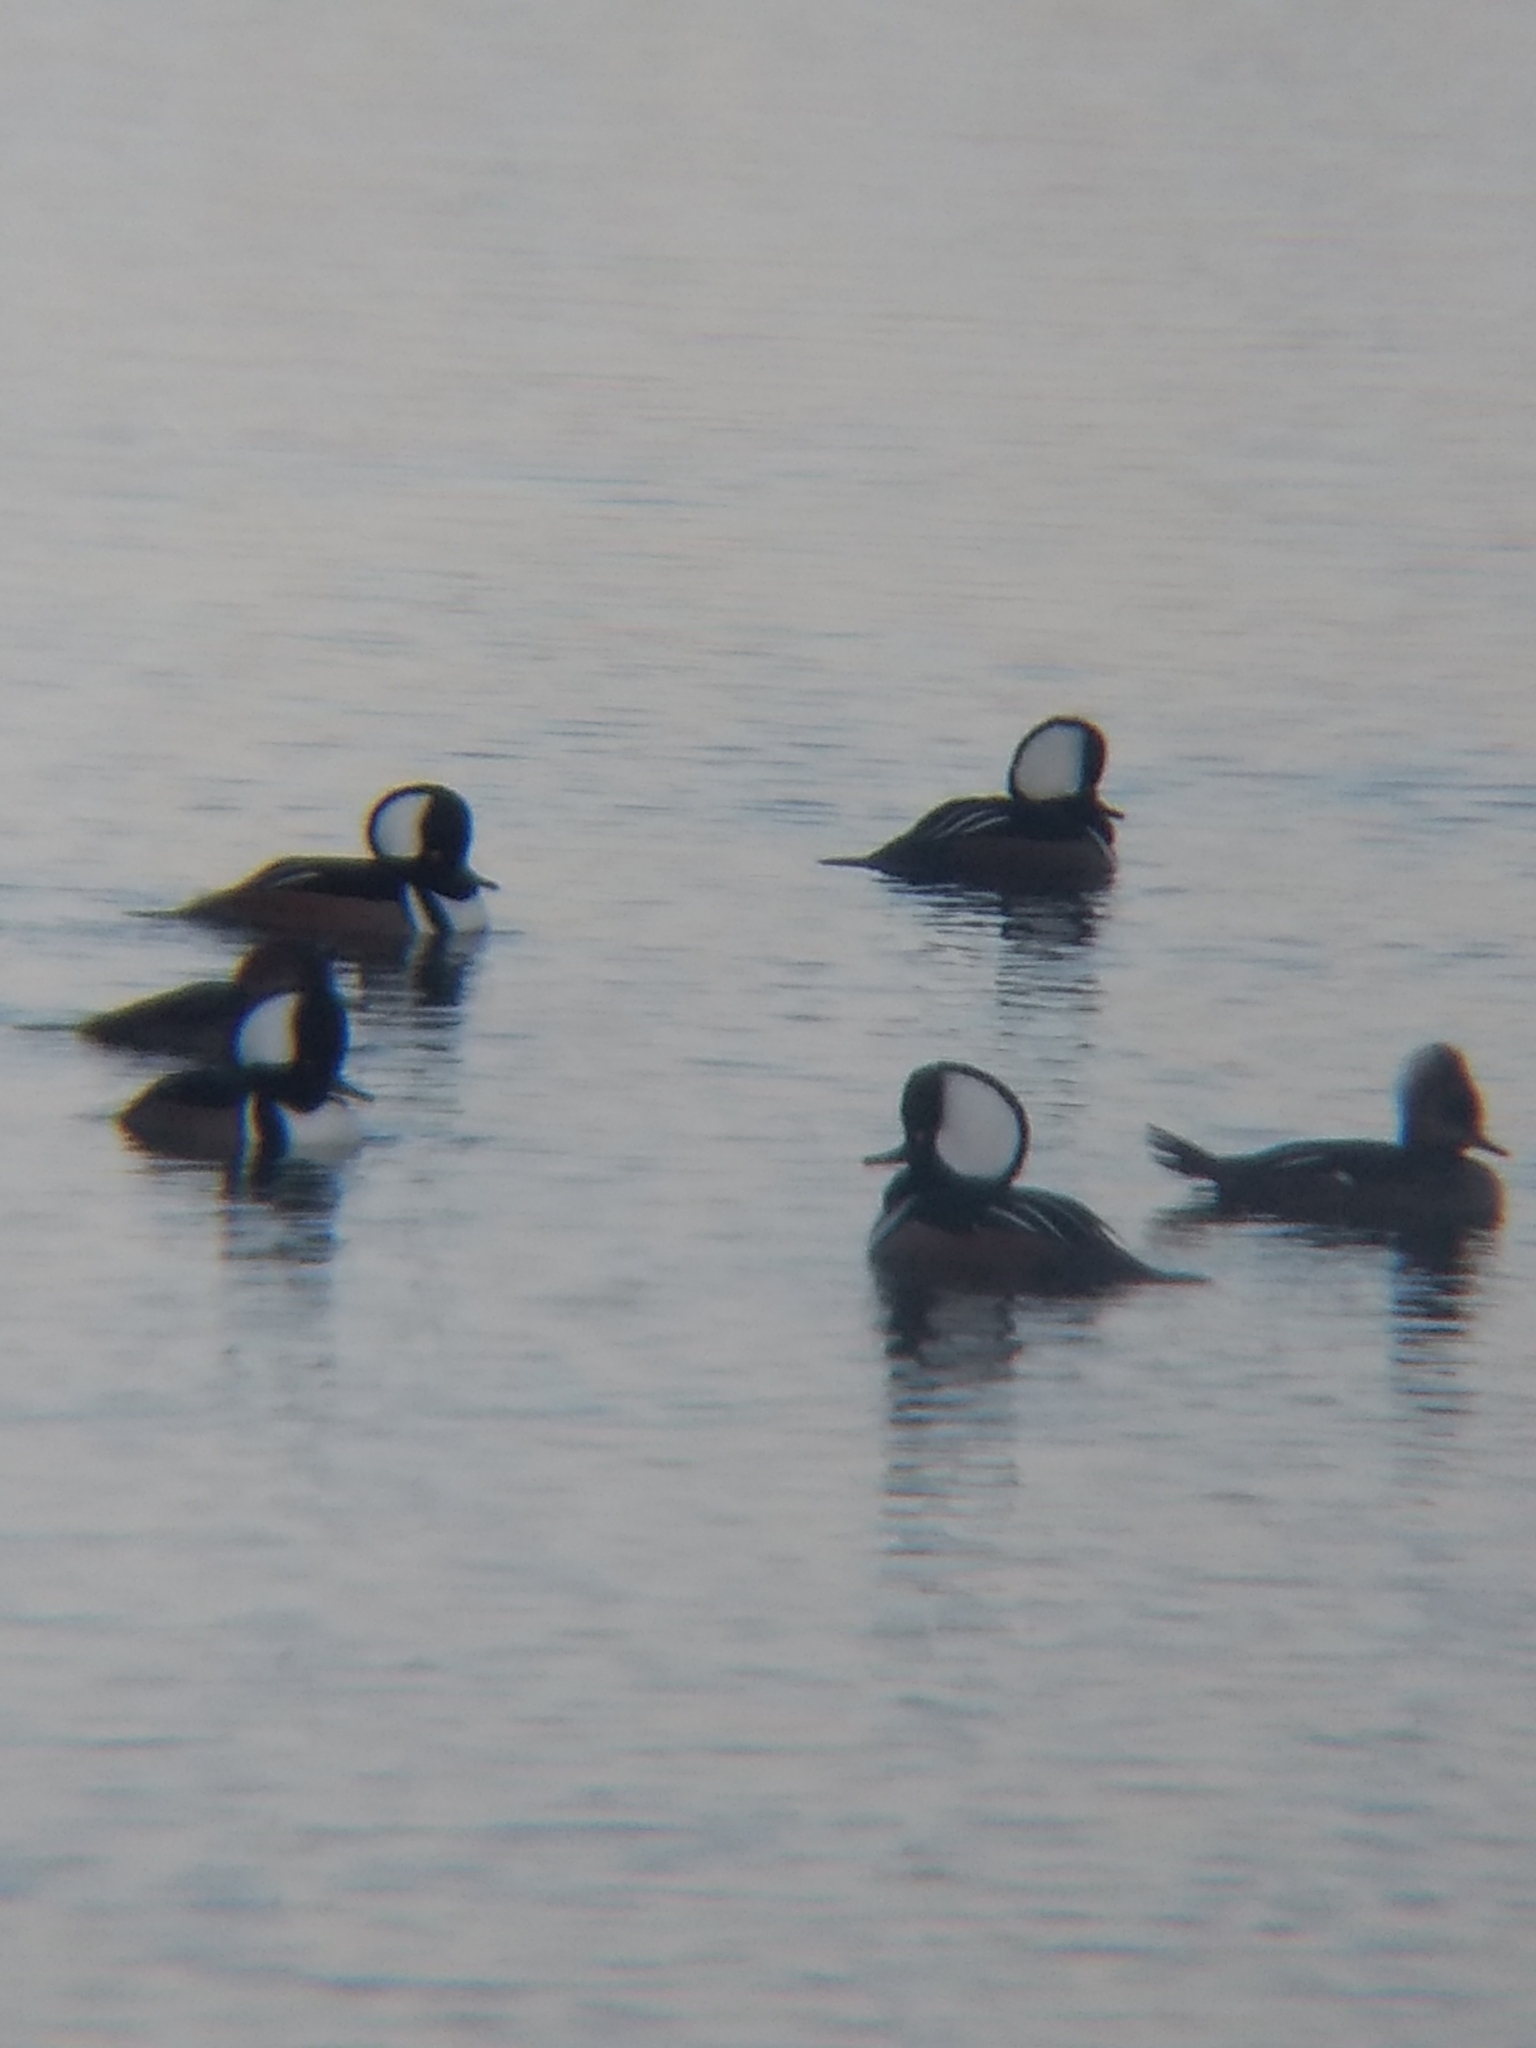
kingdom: Animalia
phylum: Chordata
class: Aves
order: Anseriformes
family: Anatidae
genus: Lophodytes
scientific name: Lophodytes cucullatus
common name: Hooded merganser
